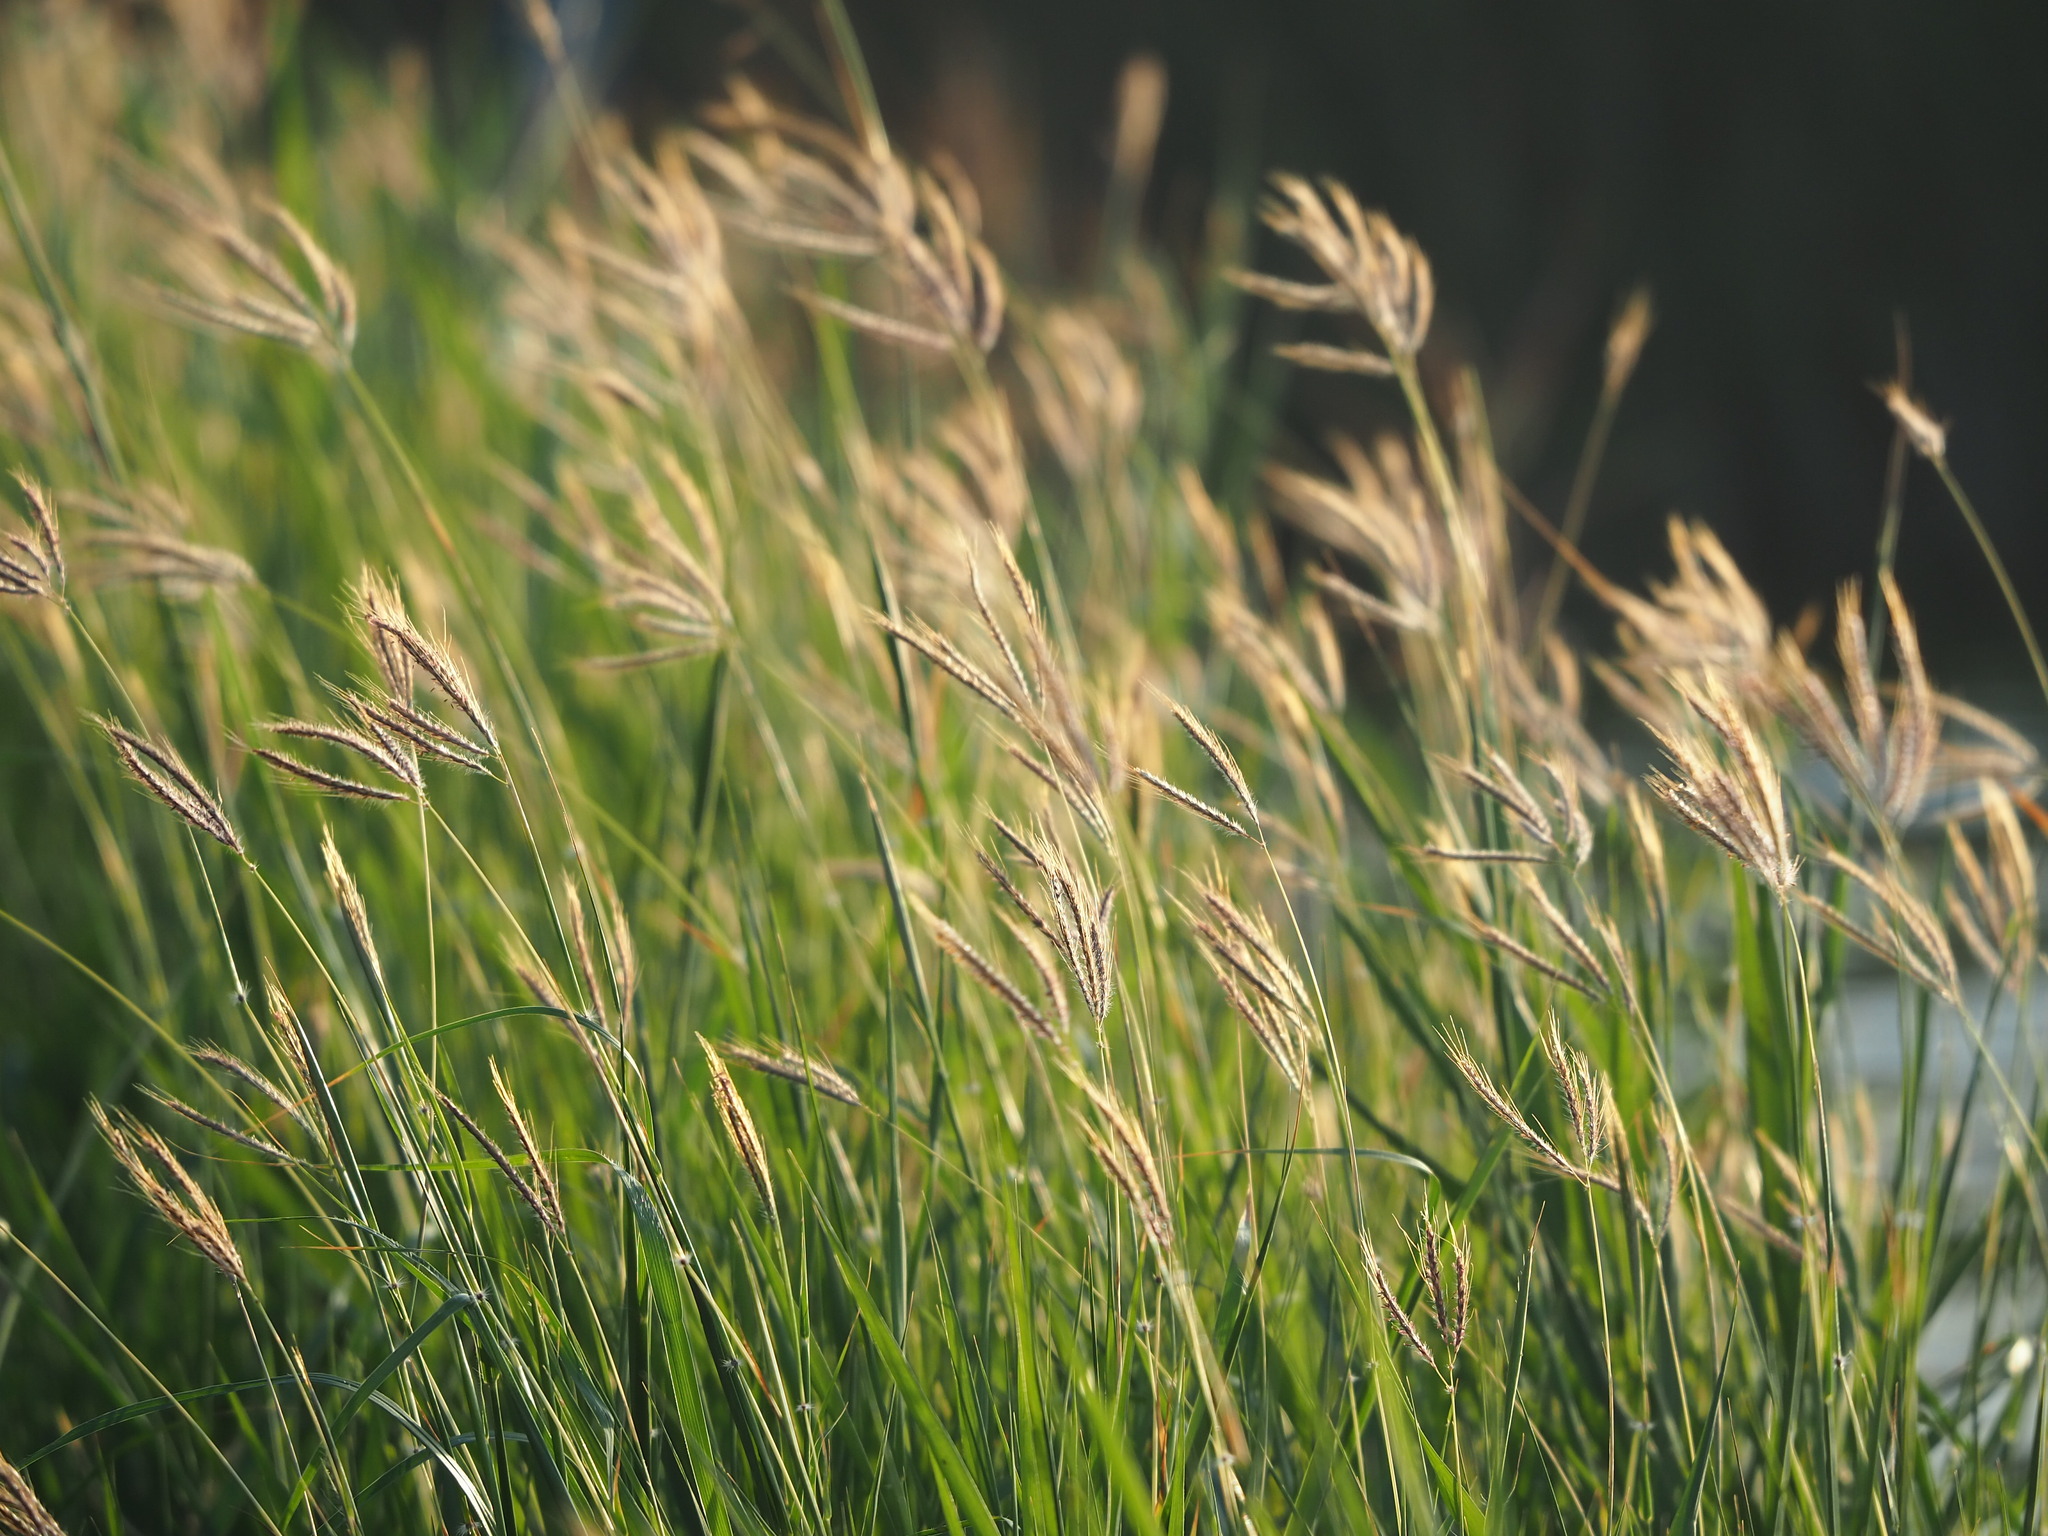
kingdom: Plantae
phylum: Tracheophyta
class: Liliopsida
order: Poales
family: Poaceae
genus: Dichanthium
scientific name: Dichanthium annulatum
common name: Kleberg's bluestem
